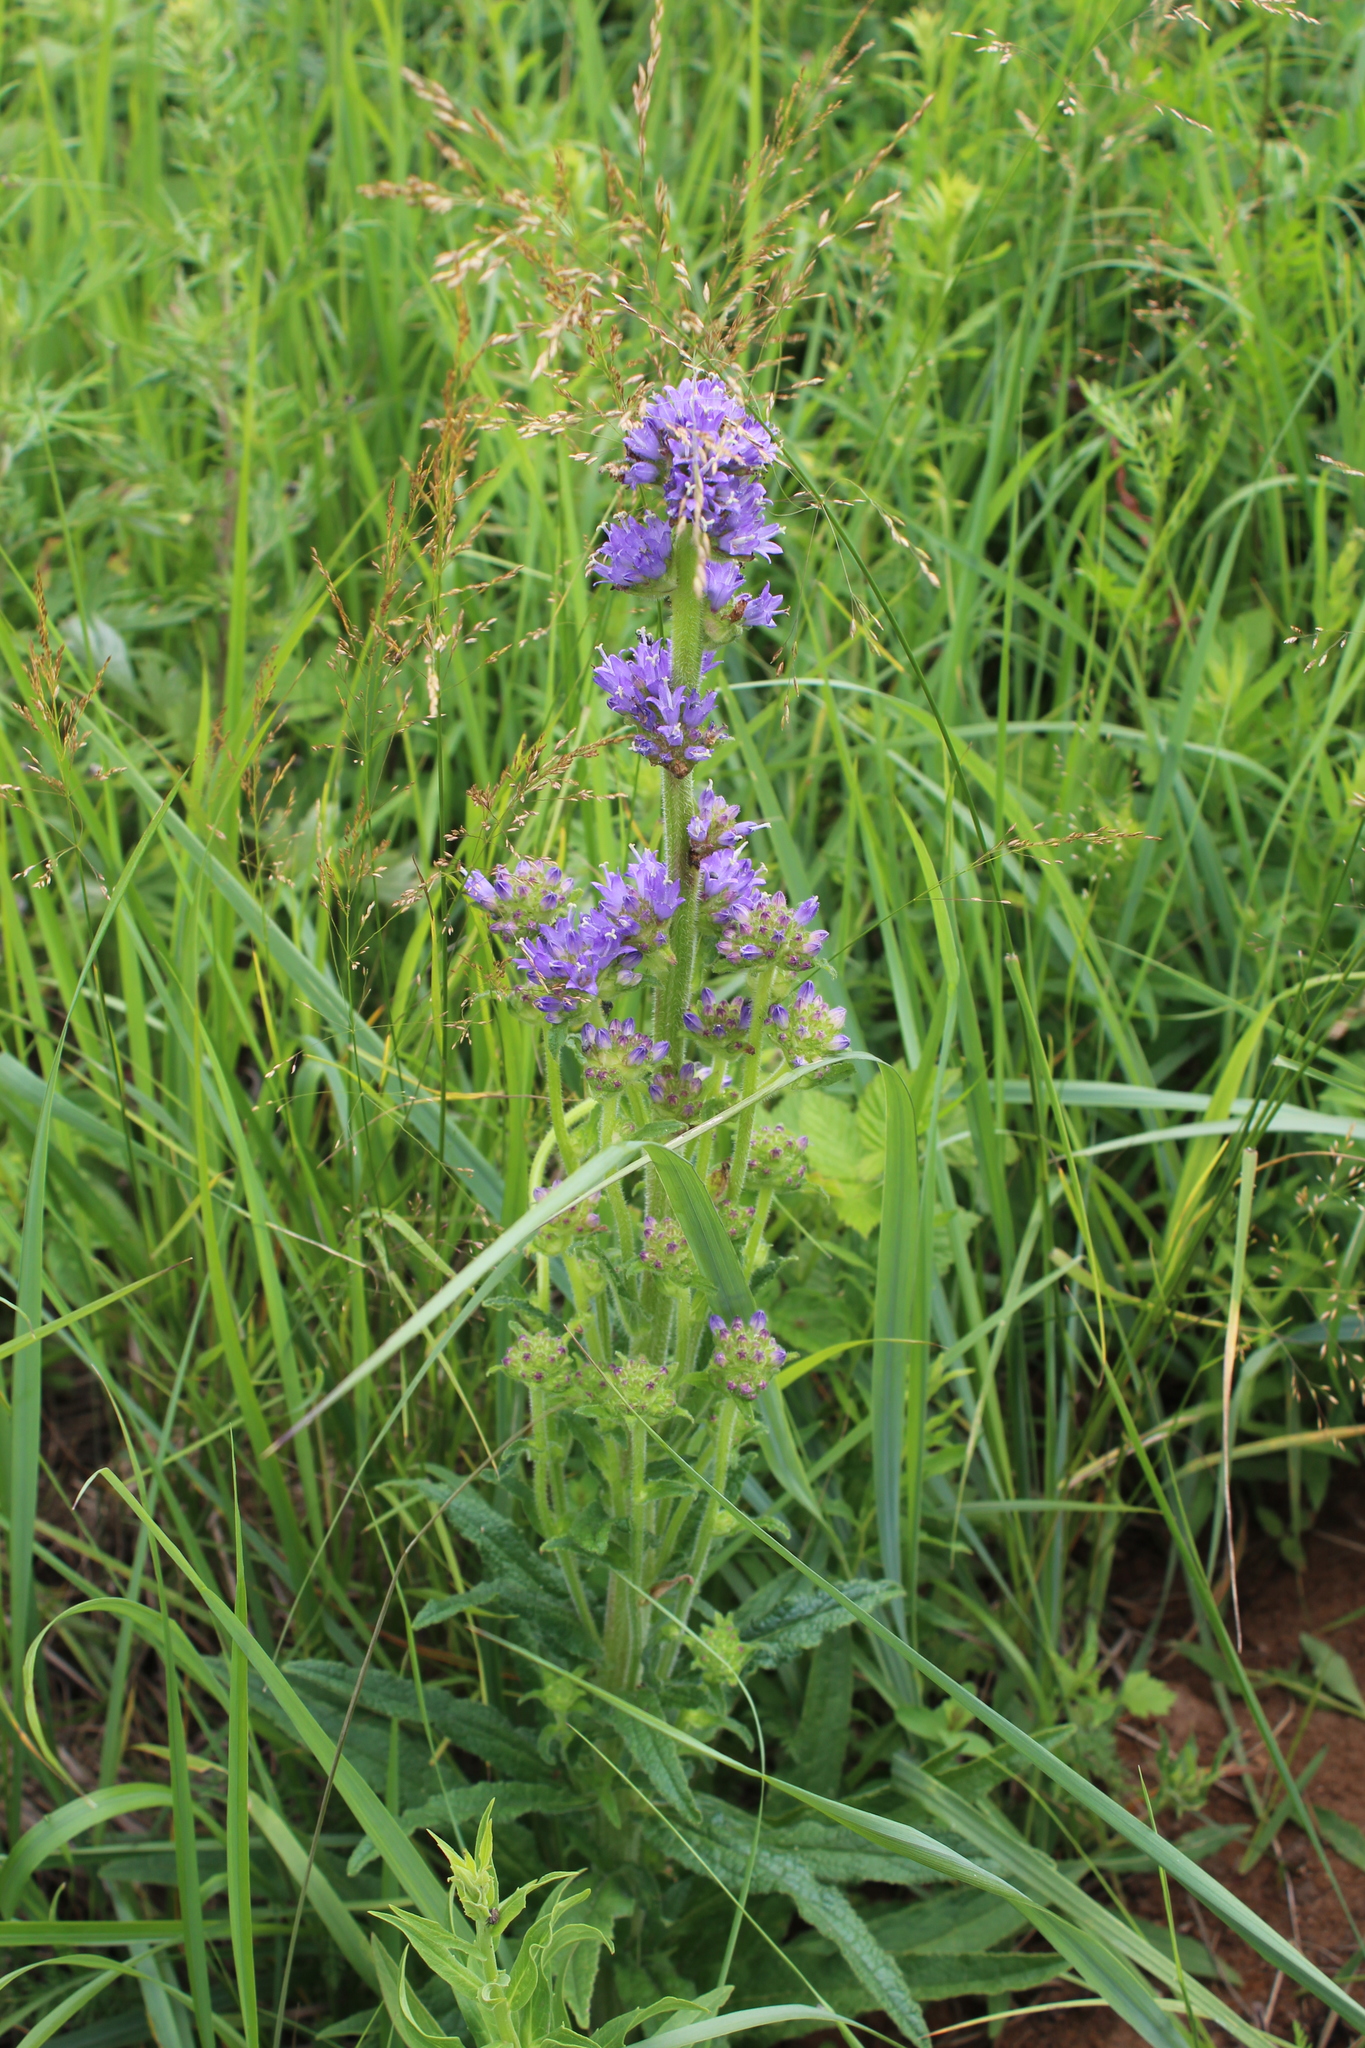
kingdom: Plantae
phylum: Tracheophyta
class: Magnoliopsida
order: Asterales
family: Campanulaceae
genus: Campanula
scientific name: Campanula cervicaria
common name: Bristly bellflower
